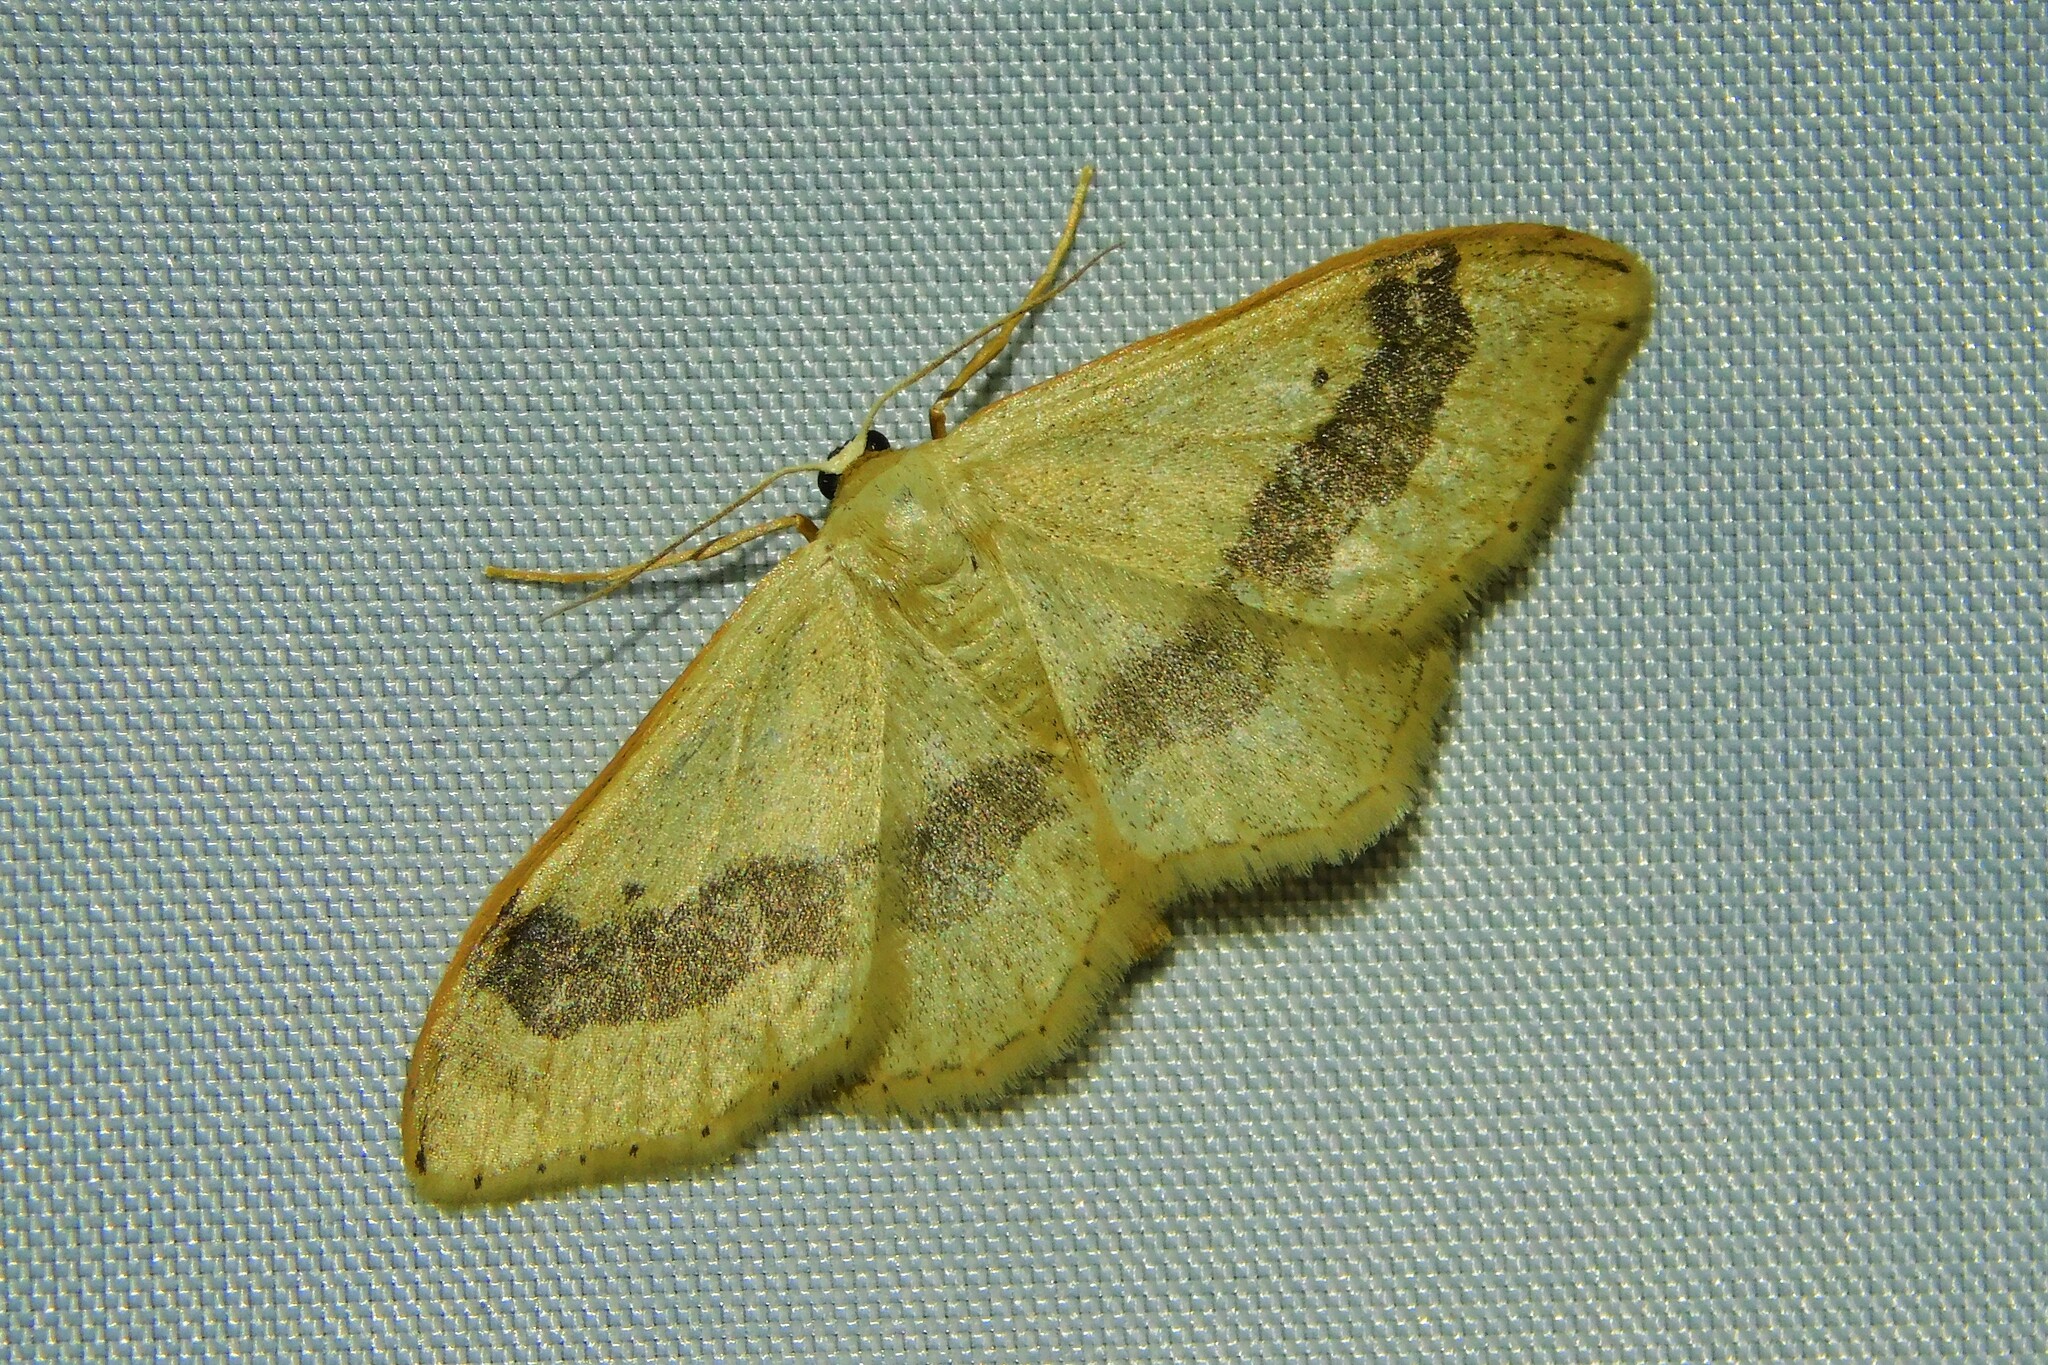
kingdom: Animalia
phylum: Arthropoda
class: Insecta
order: Lepidoptera
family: Geometridae
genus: Idaea
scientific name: Idaea aversata
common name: Riband wave
